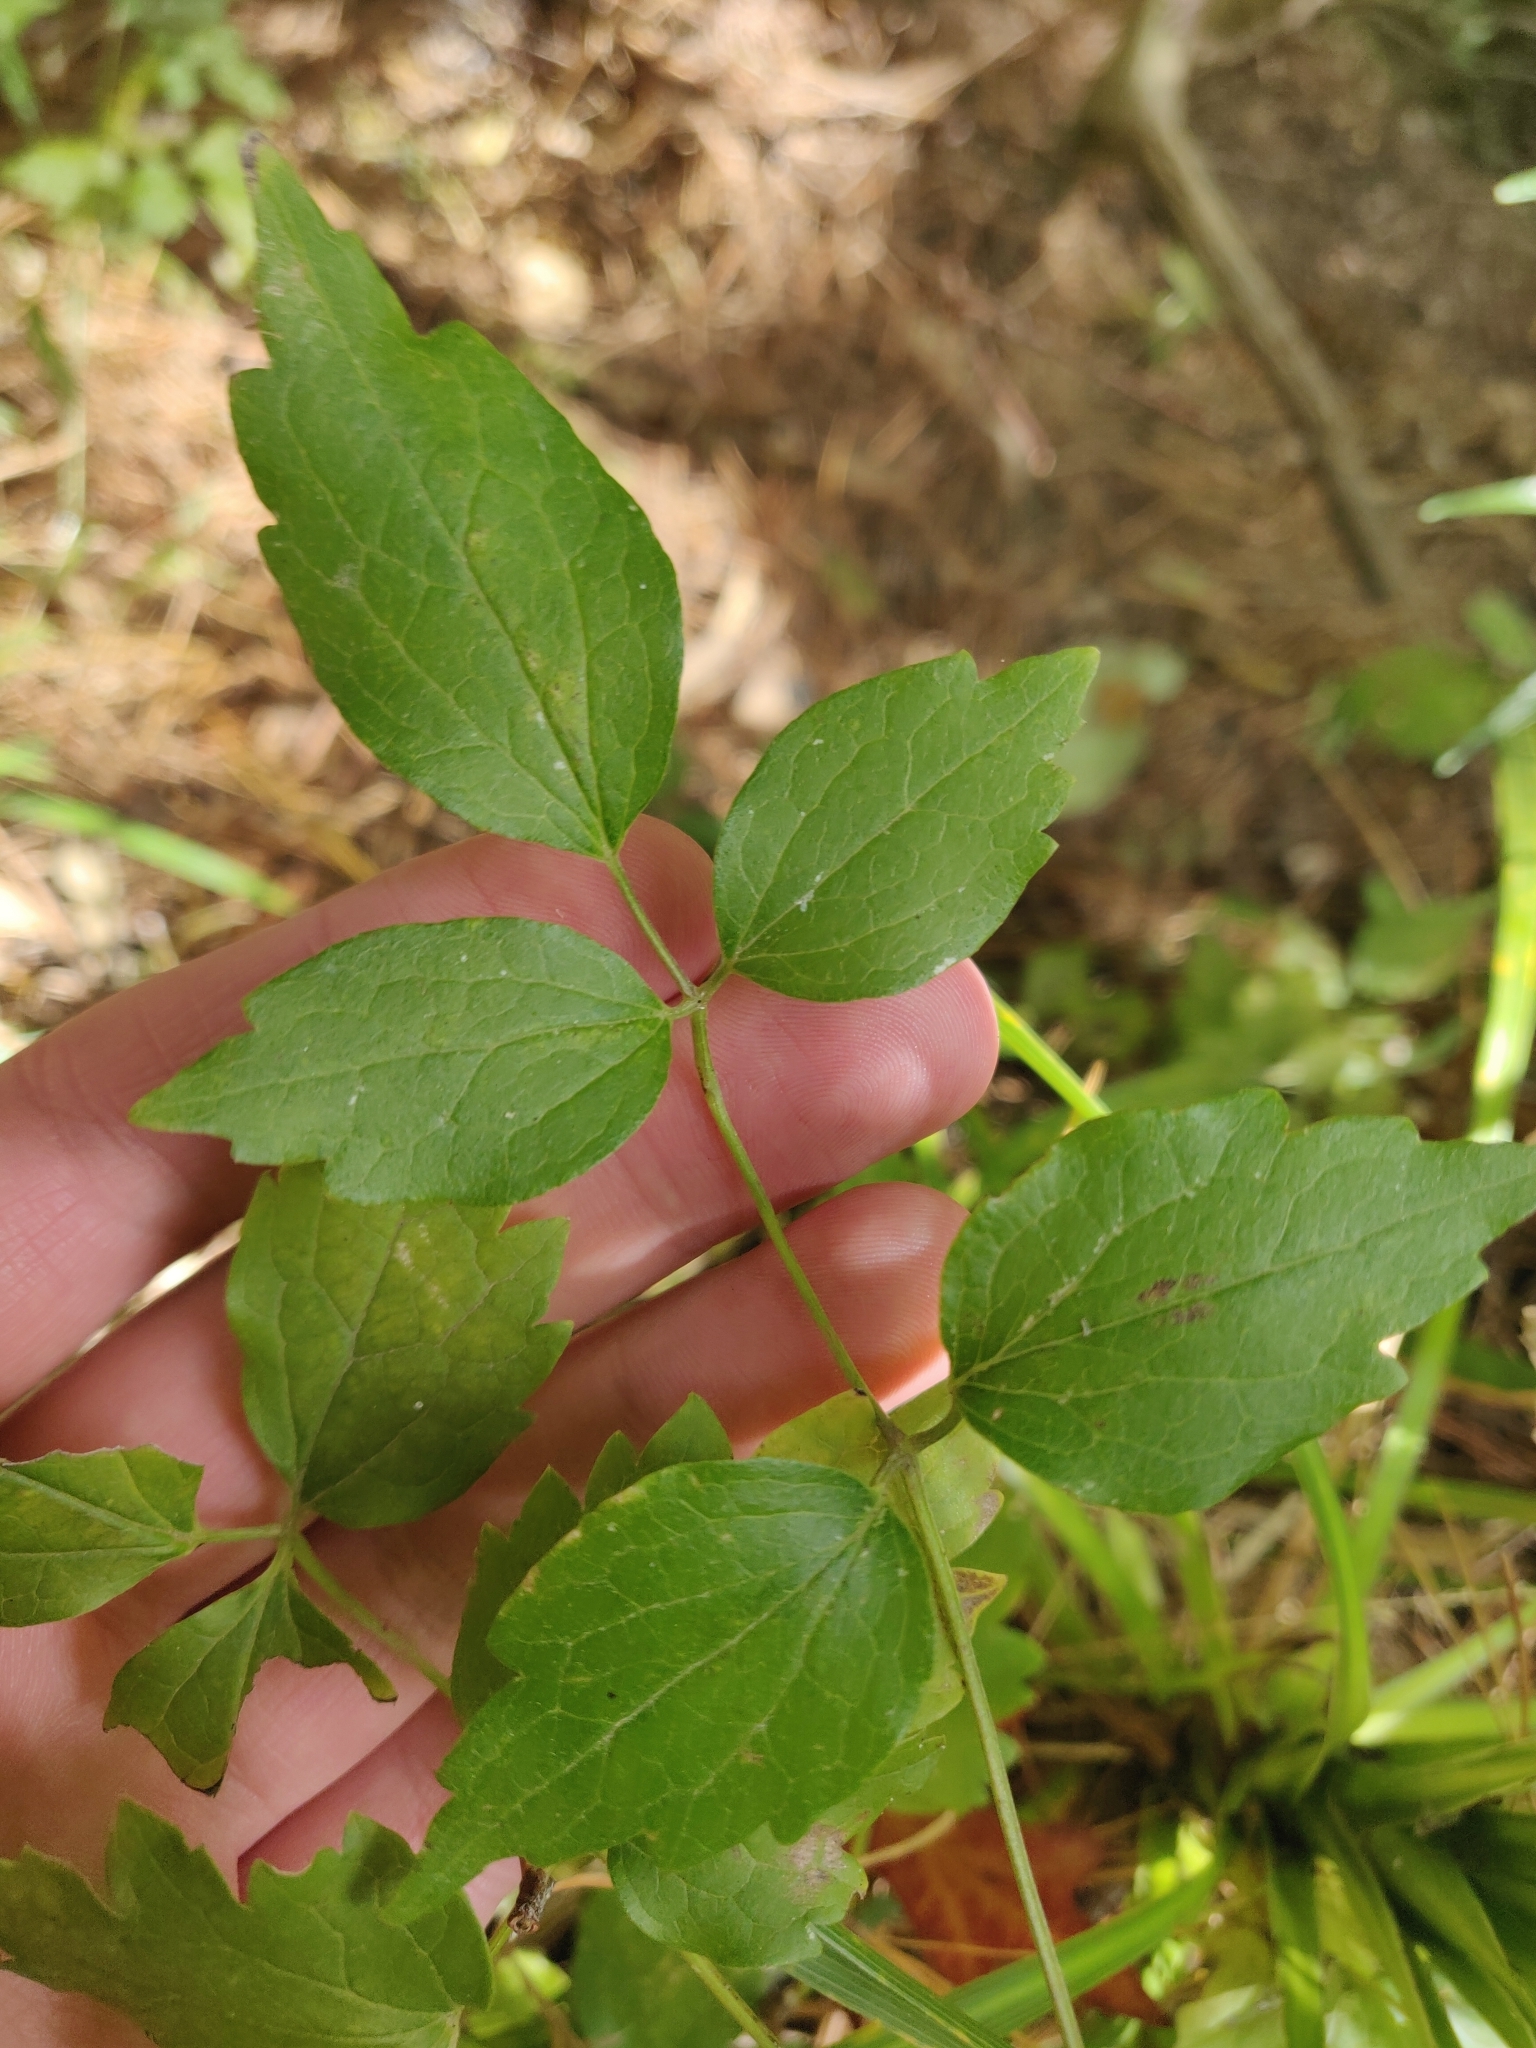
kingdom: Plantae
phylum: Tracheophyta
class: Magnoliopsida
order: Ranunculales
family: Ranunculaceae
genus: Clematis
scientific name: Clematis vitalba
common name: Evergreen clematis
